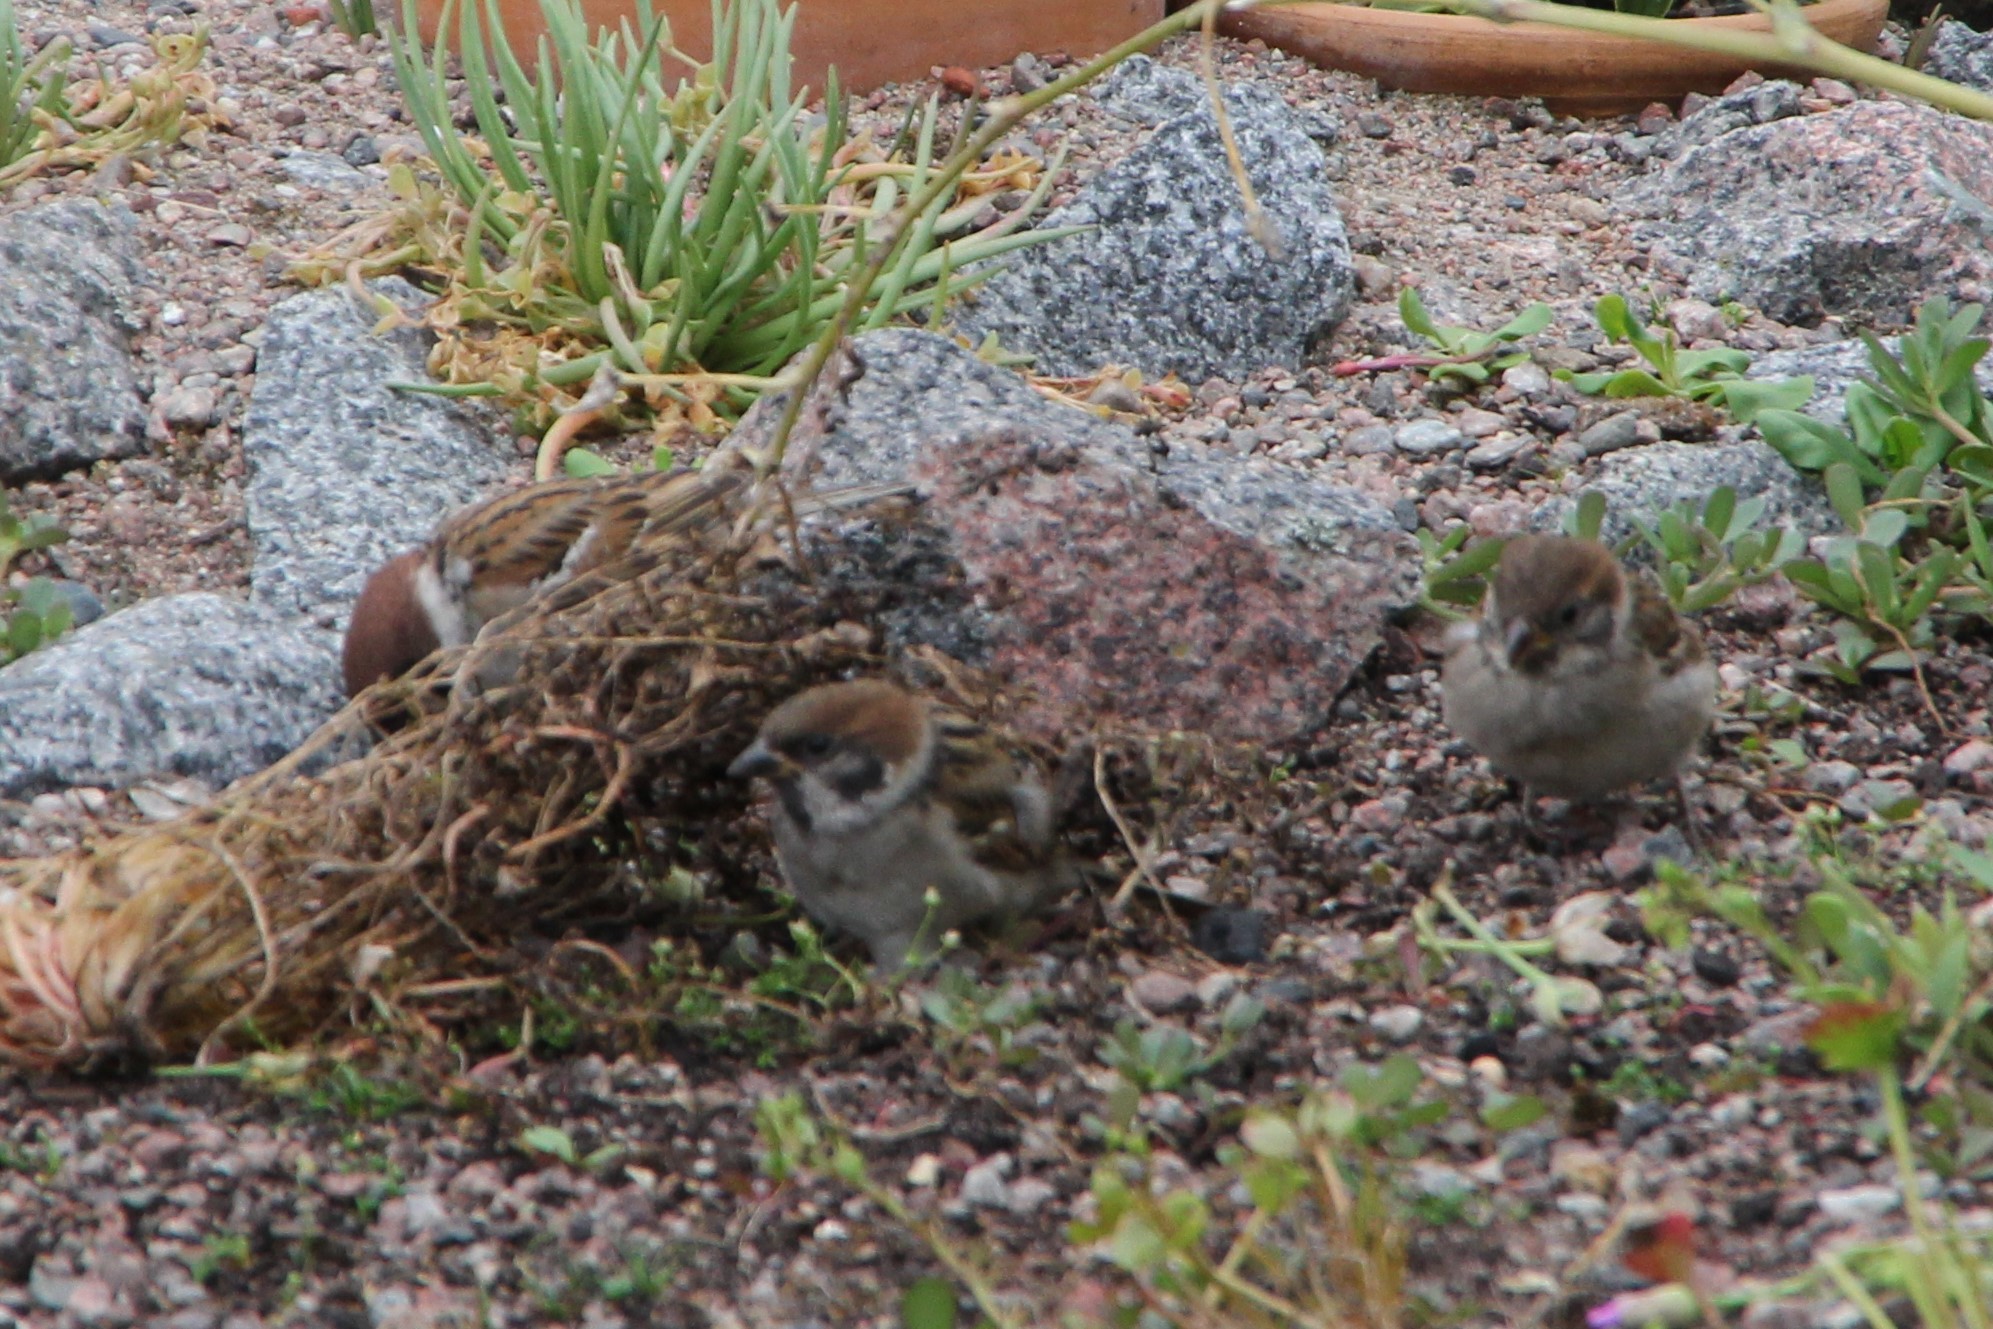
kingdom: Animalia
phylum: Chordata
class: Aves
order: Passeriformes
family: Passeridae
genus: Passer
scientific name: Passer montanus
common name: Eurasian tree sparrow
